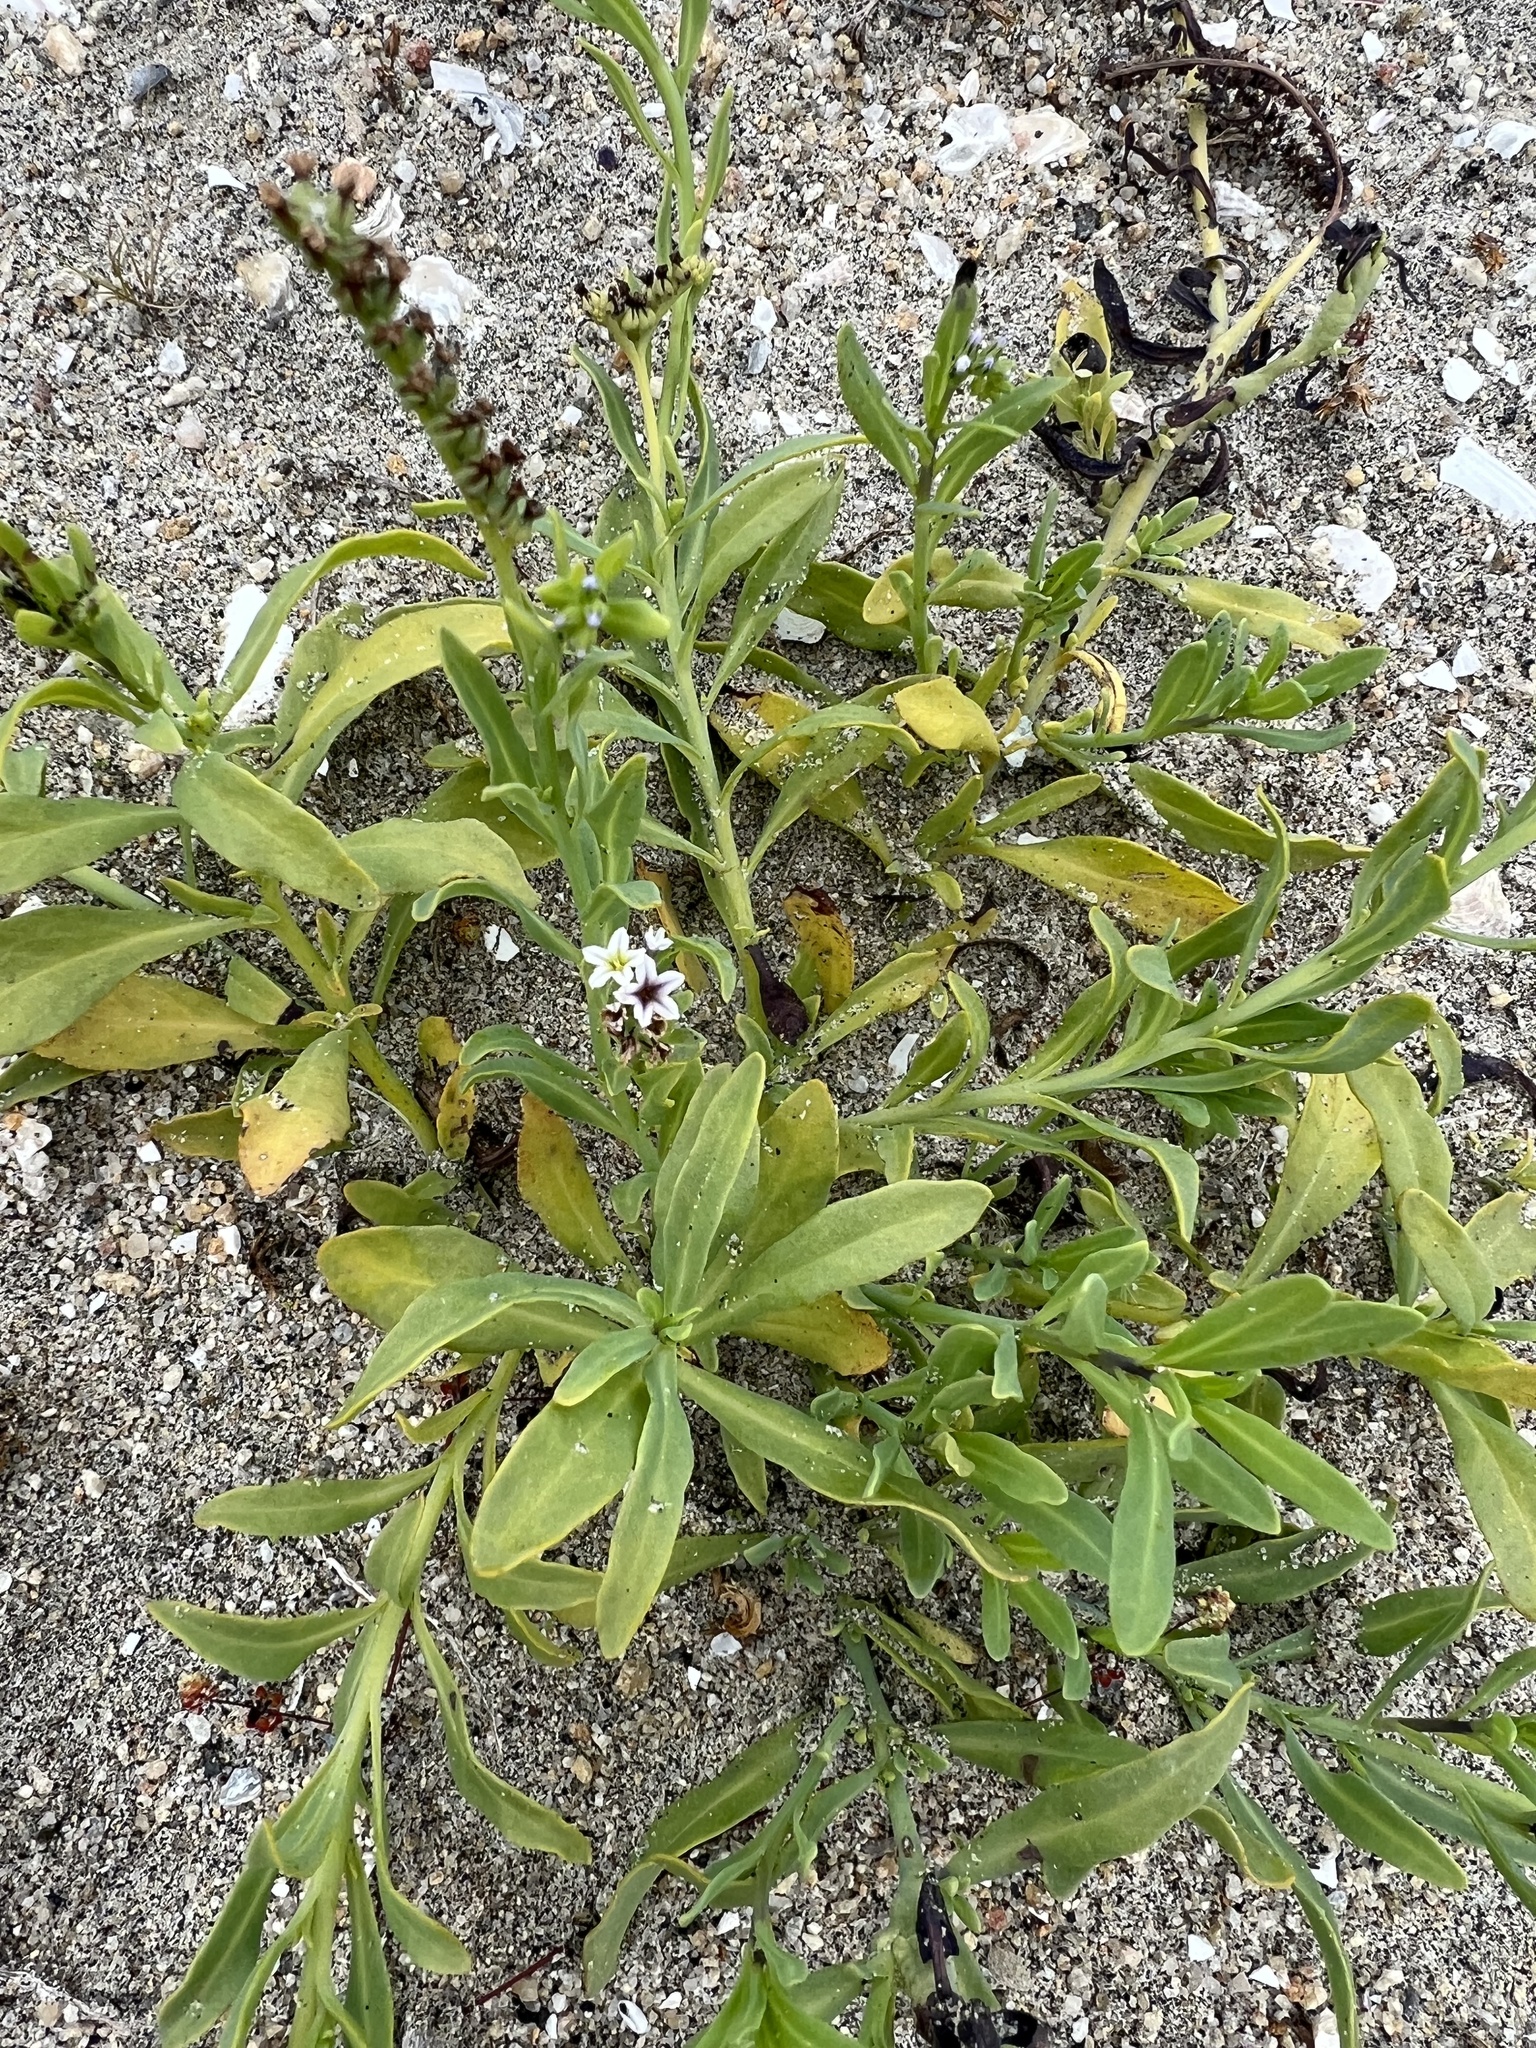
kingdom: Plantae
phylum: Tracheophyta
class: Magnoliopsida
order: Boraginales
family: Heliotropiaceae
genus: Heliotropium
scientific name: Heliotropium curassavicum
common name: Seaside heliotrope
